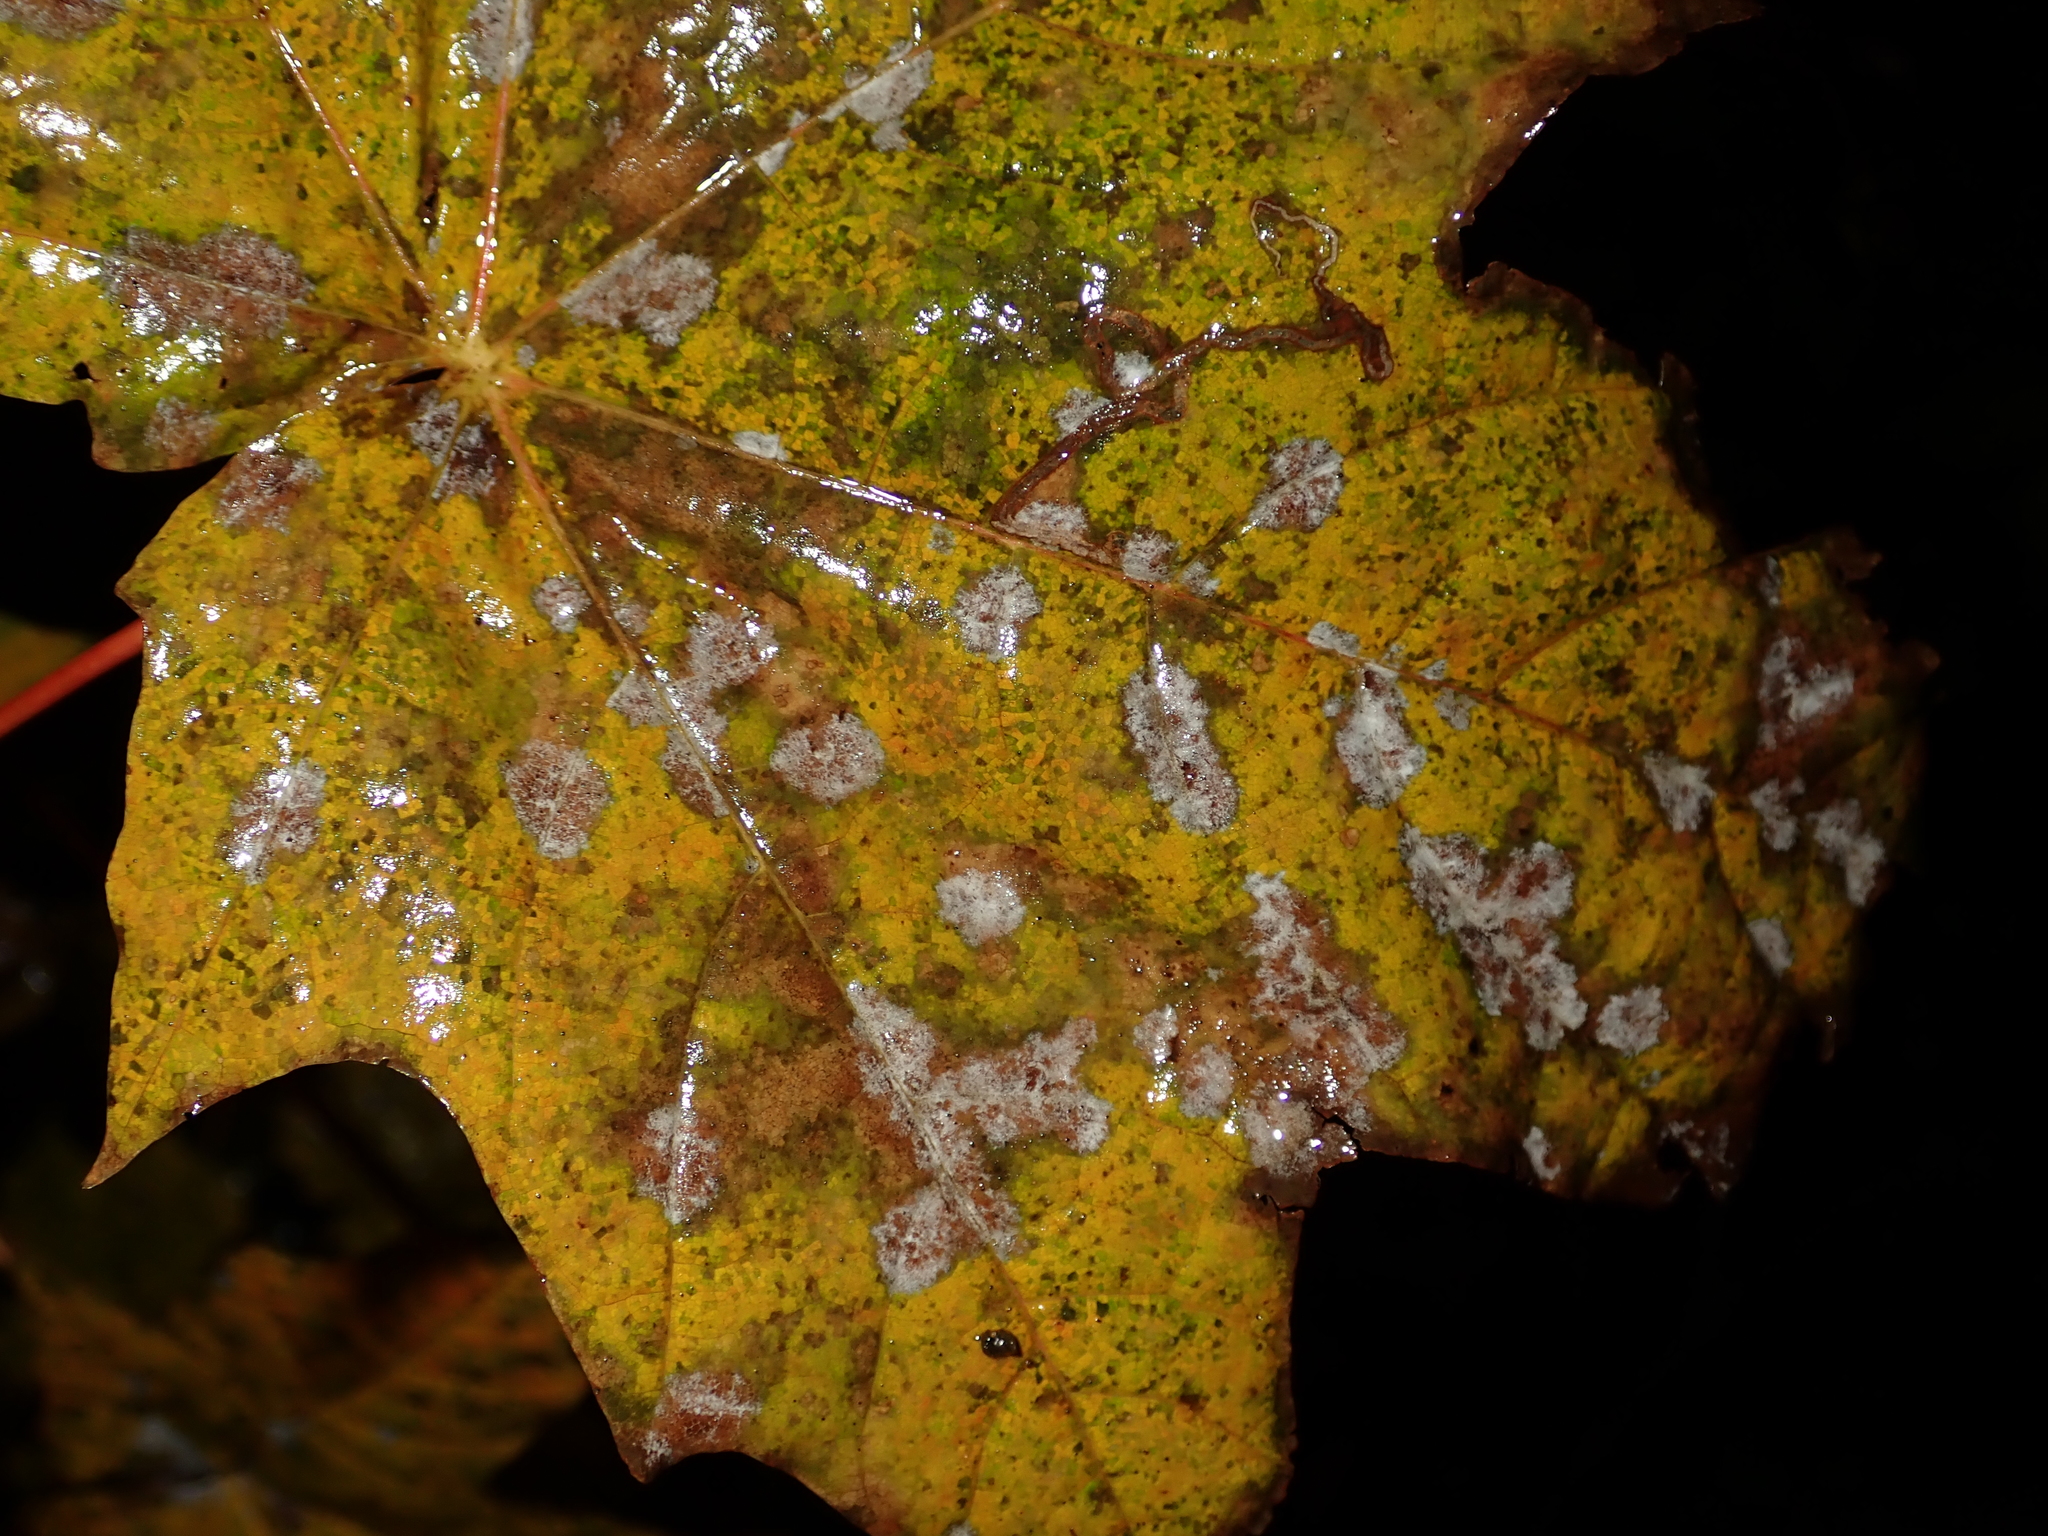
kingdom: Fungi
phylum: Ascomycota
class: Leotiomycetes
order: Helotiales
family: Erysiphaceae
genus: Sawadaea
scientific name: Sawadaea tulasnei
